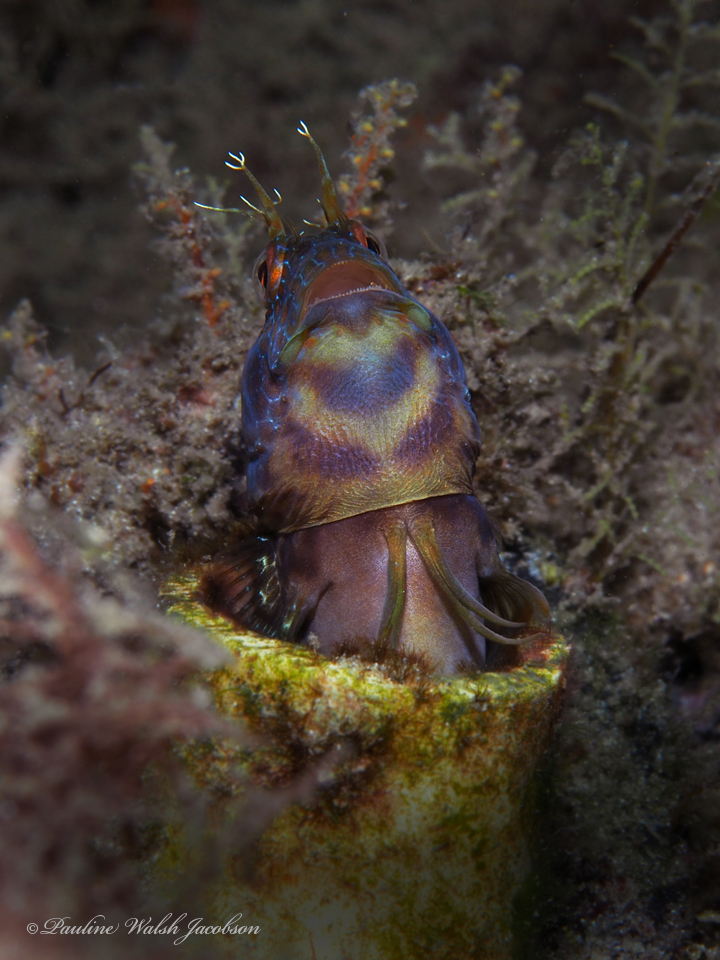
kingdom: Animalia
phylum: Chordata
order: Perciformes
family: Blenniidae
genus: Parablennius
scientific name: Parablennius marmoreus
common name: Seaweed blenny
